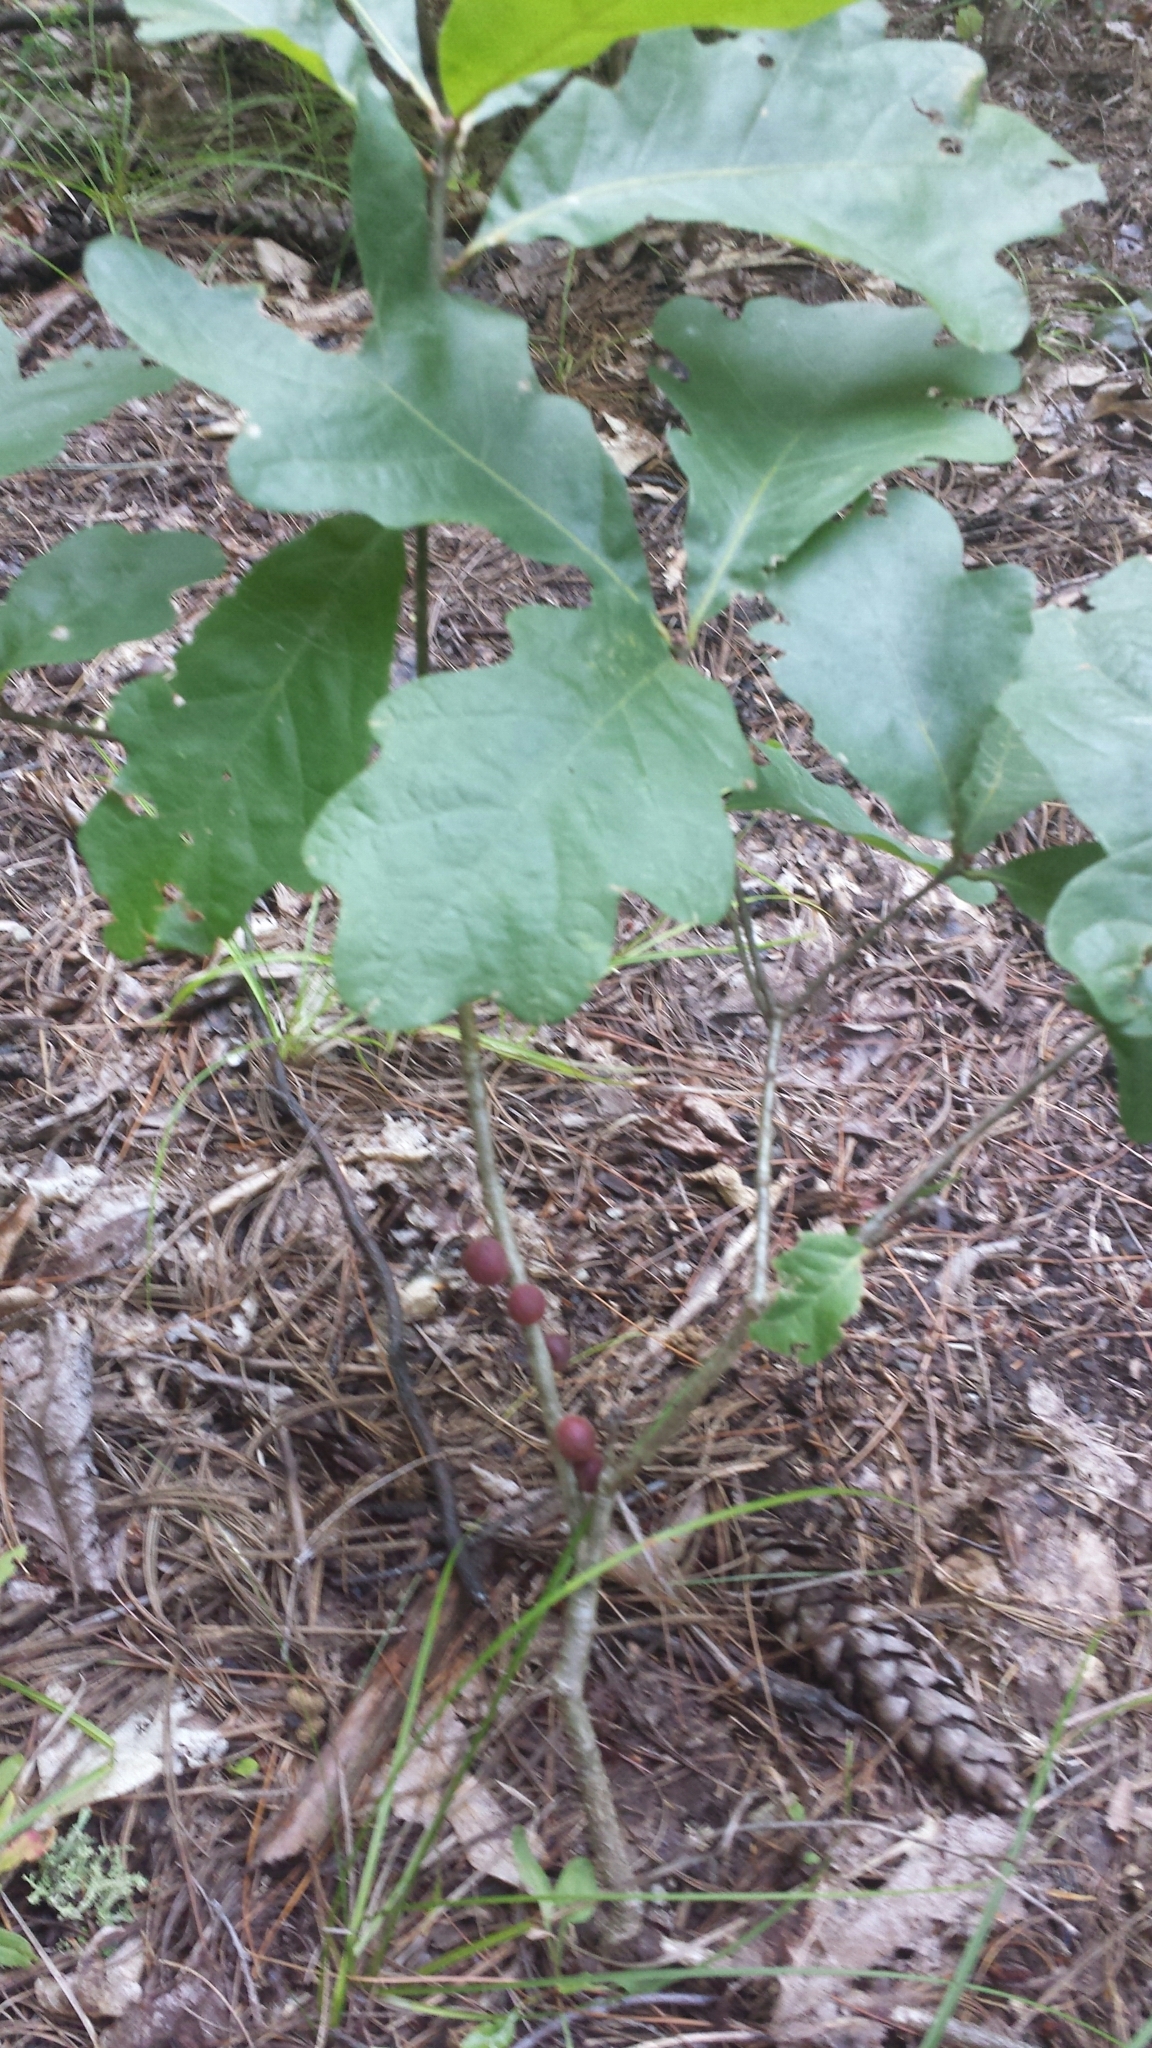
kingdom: Animalia
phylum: Arthropoda
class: Insecta
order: Hymenoptera
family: Cynipidae
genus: Disholcaspis
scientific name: Disholcaspis
